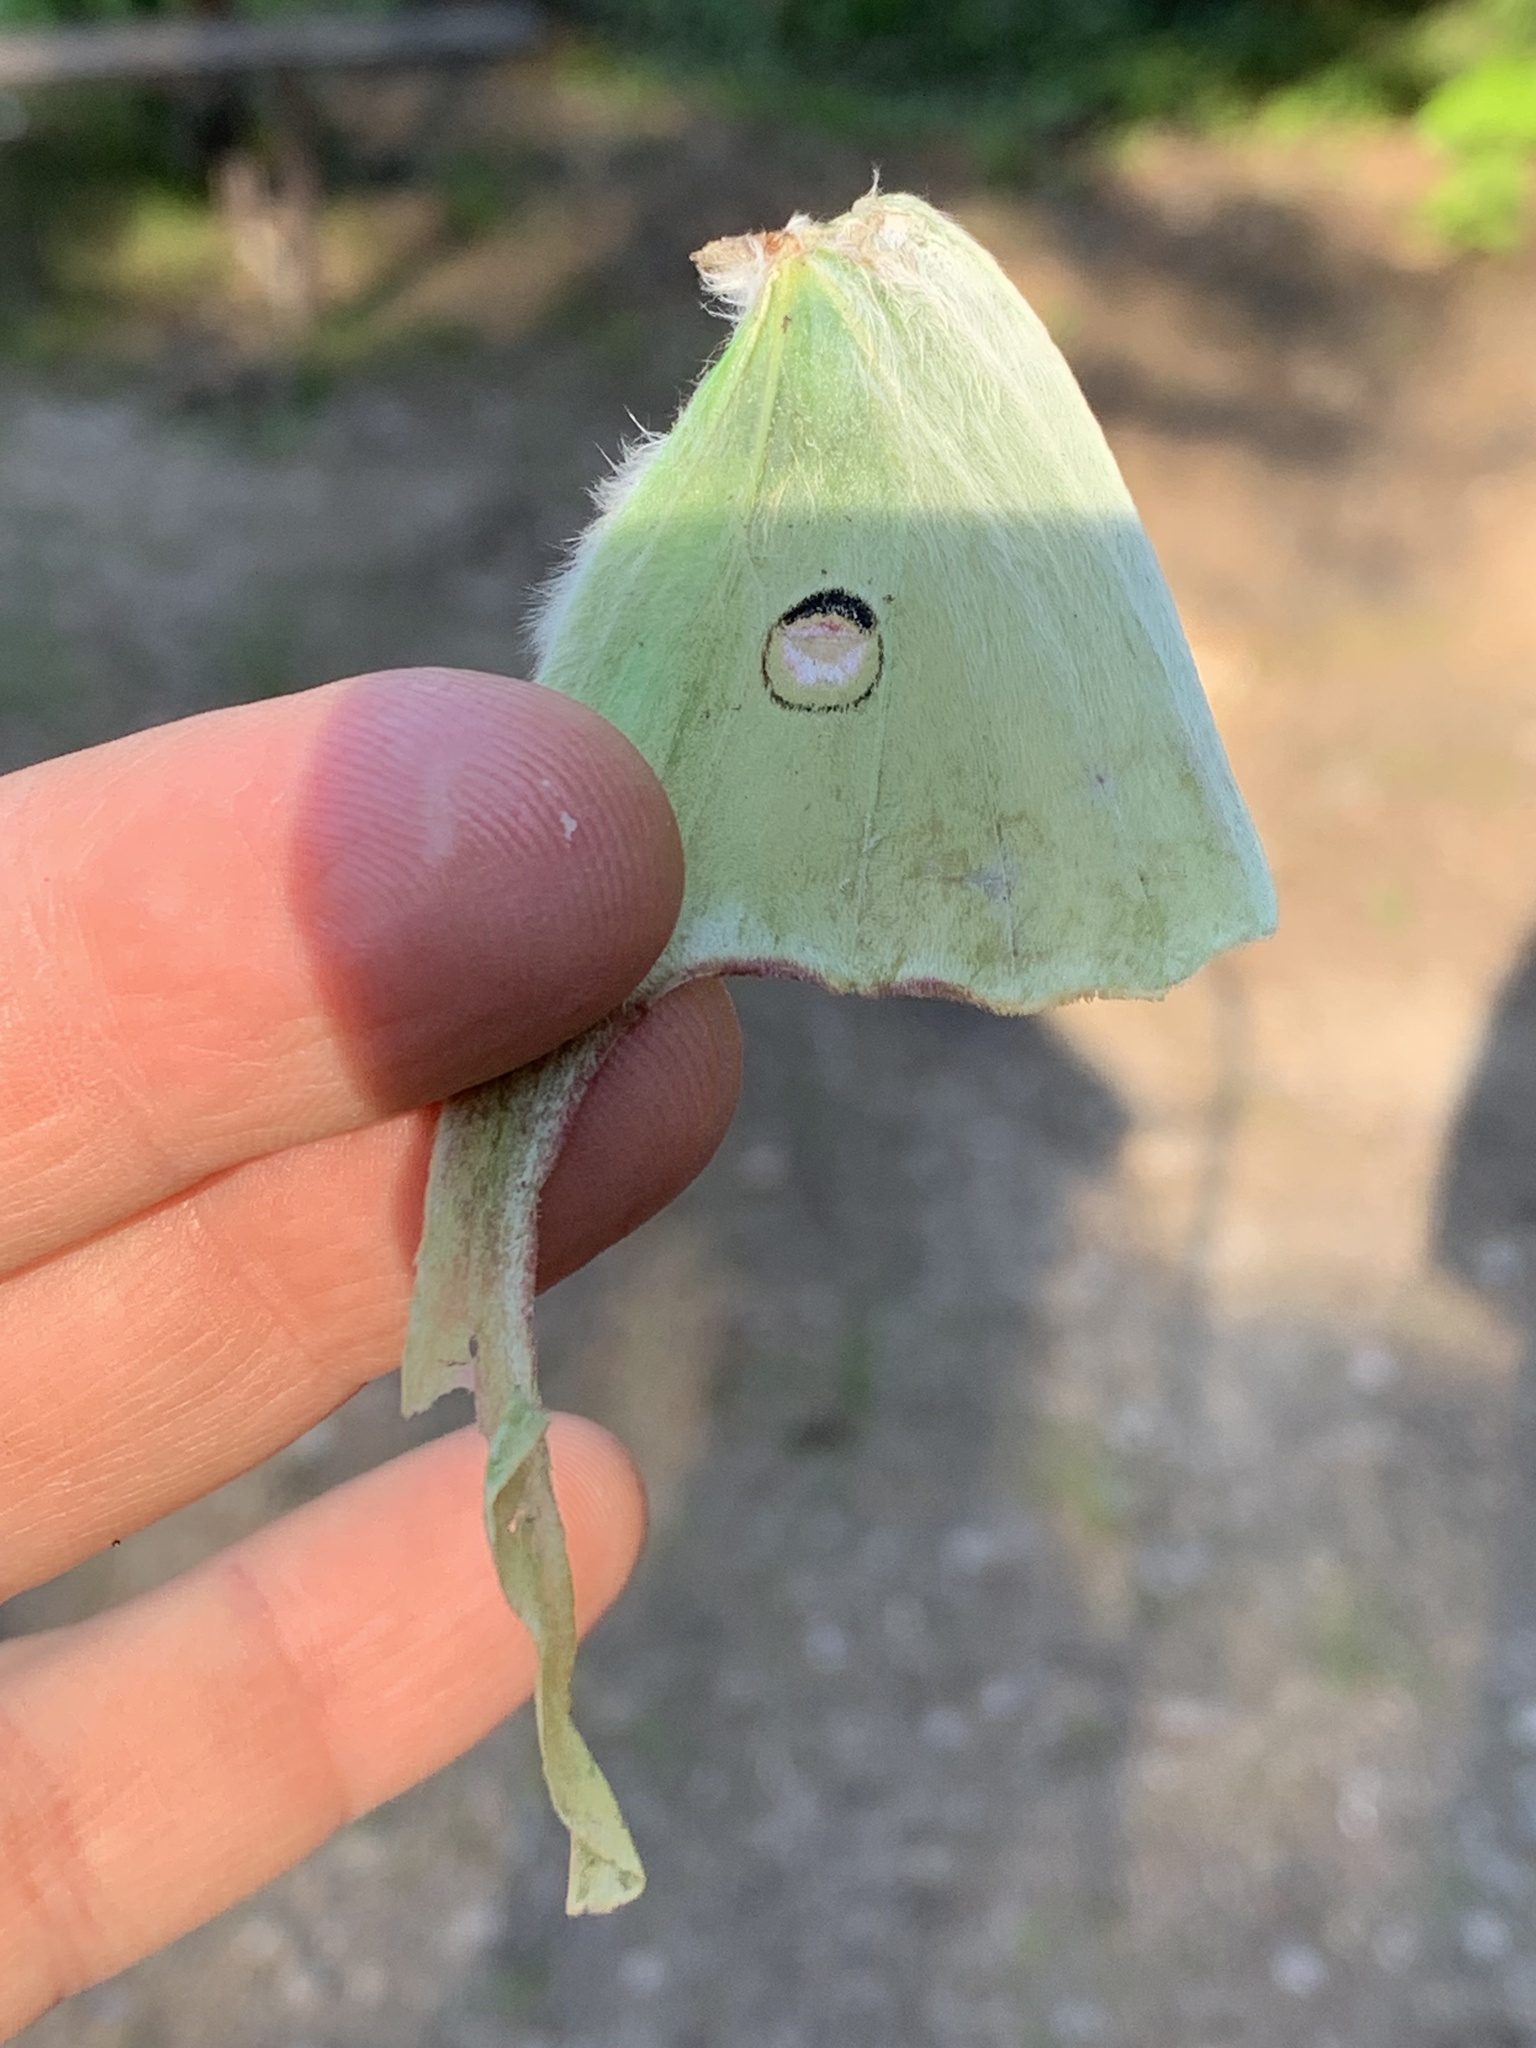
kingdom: Animalia
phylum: Arthropoda
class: Insecta
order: Lepidoptera
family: Saturniidae
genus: Actias
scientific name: Actias luna
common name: Luna moth
